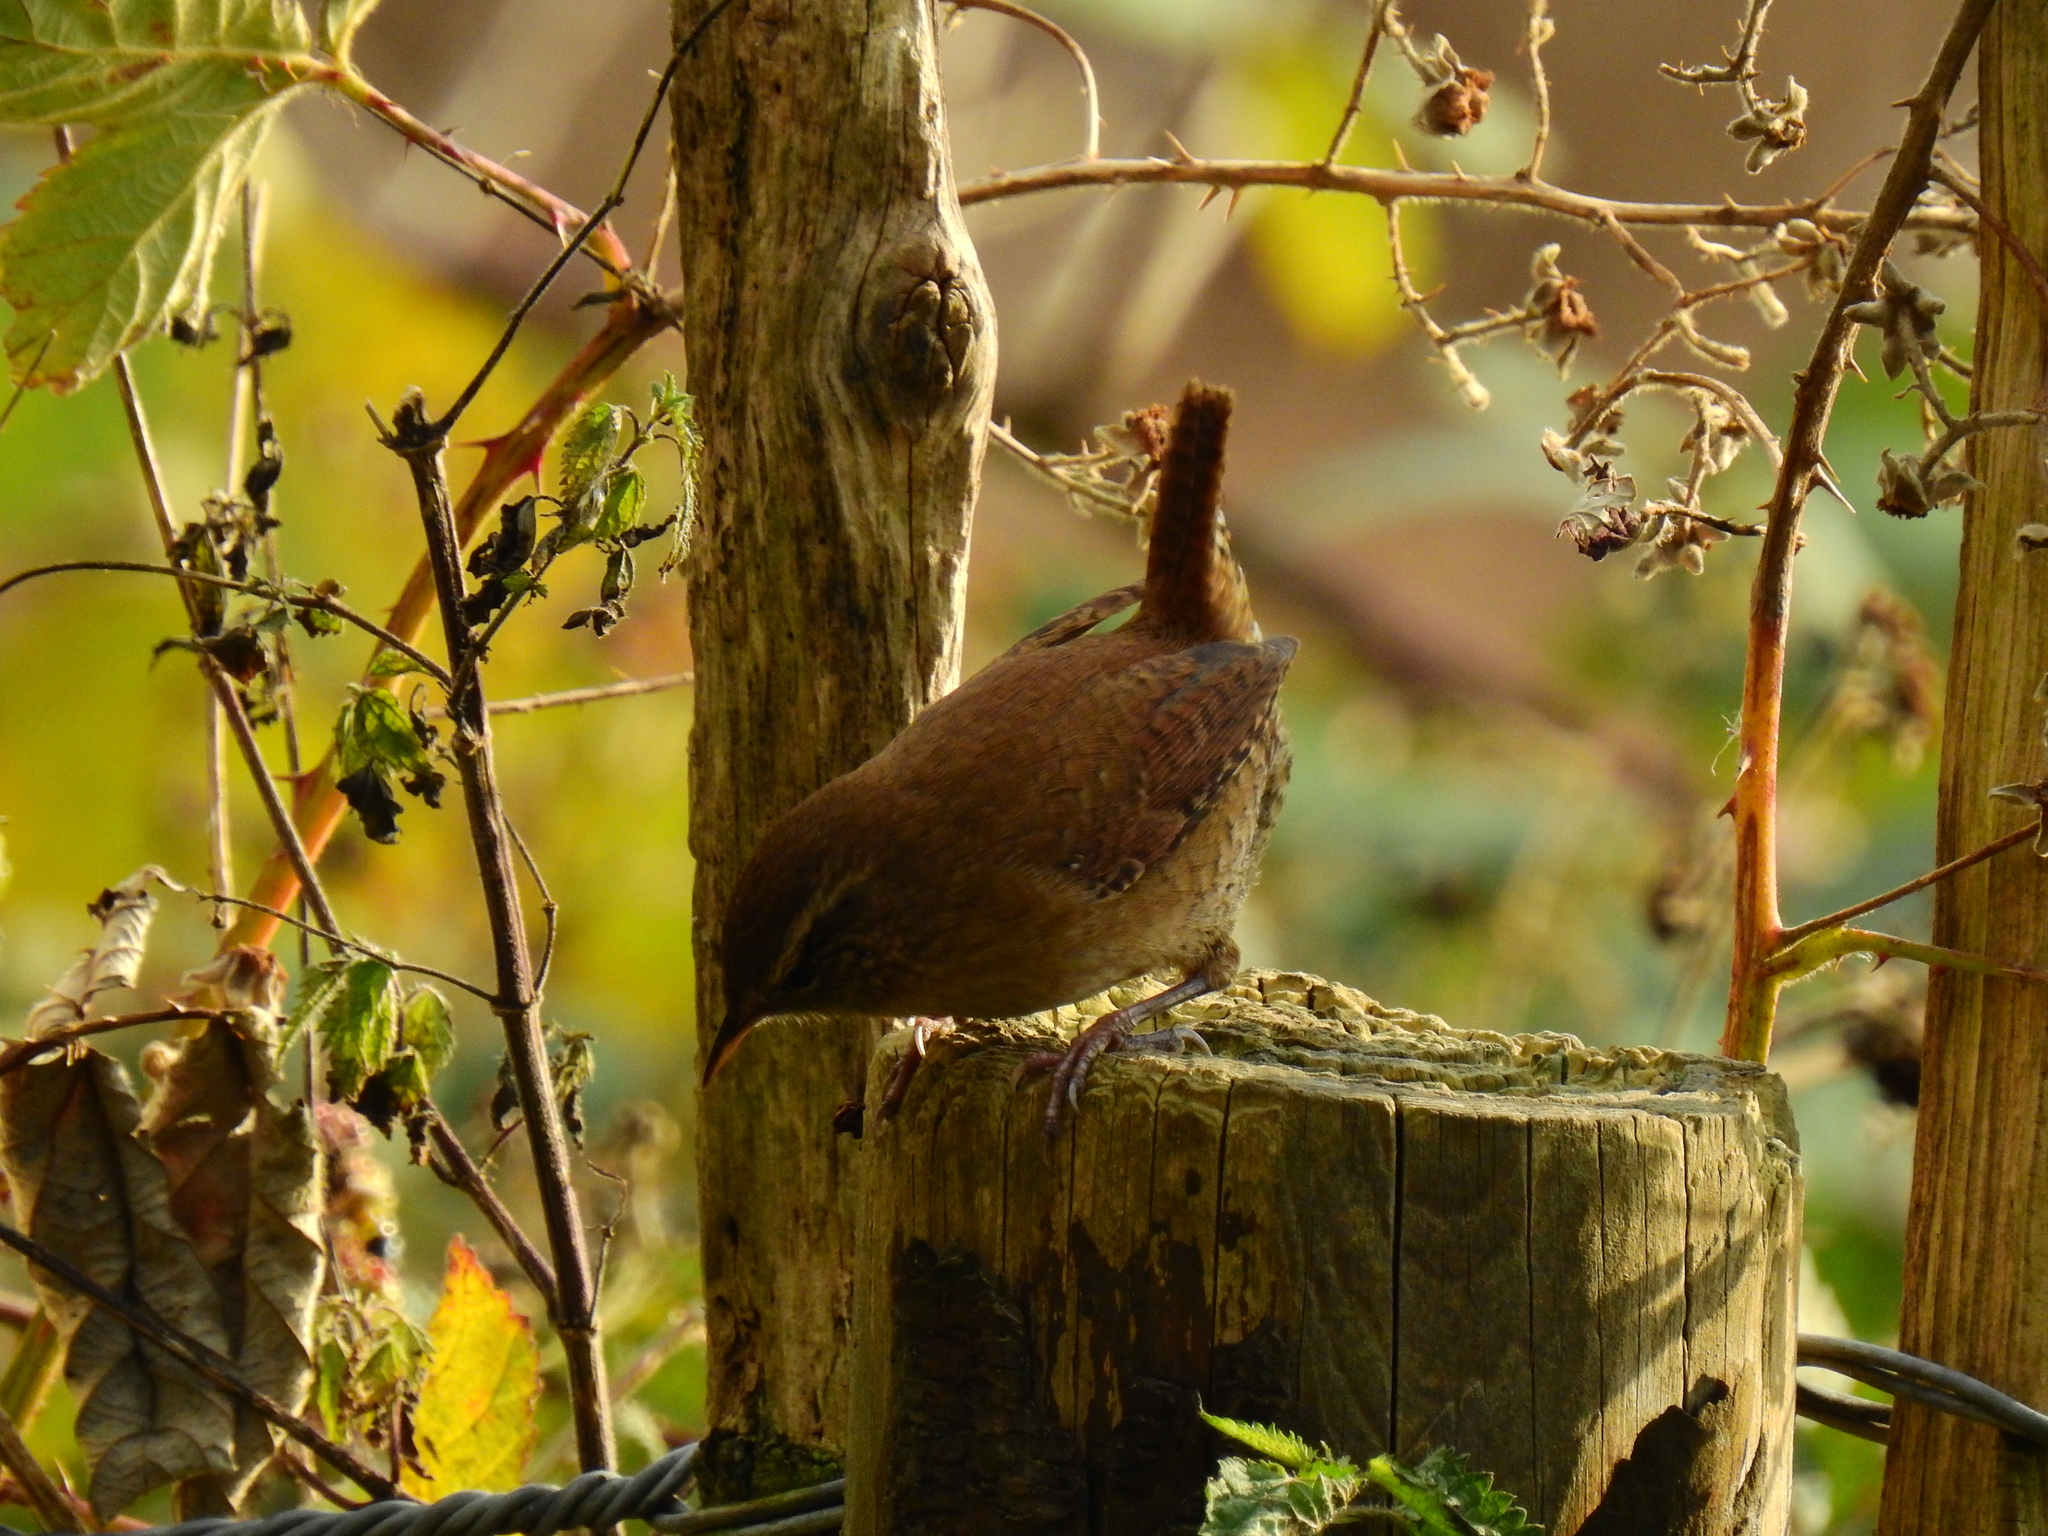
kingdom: Animalia
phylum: Chordata
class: Aves
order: Passeriformes
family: Troglodytidae
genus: Troglodytes
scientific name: Troglodytes troglodytes
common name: Eurasian wren
